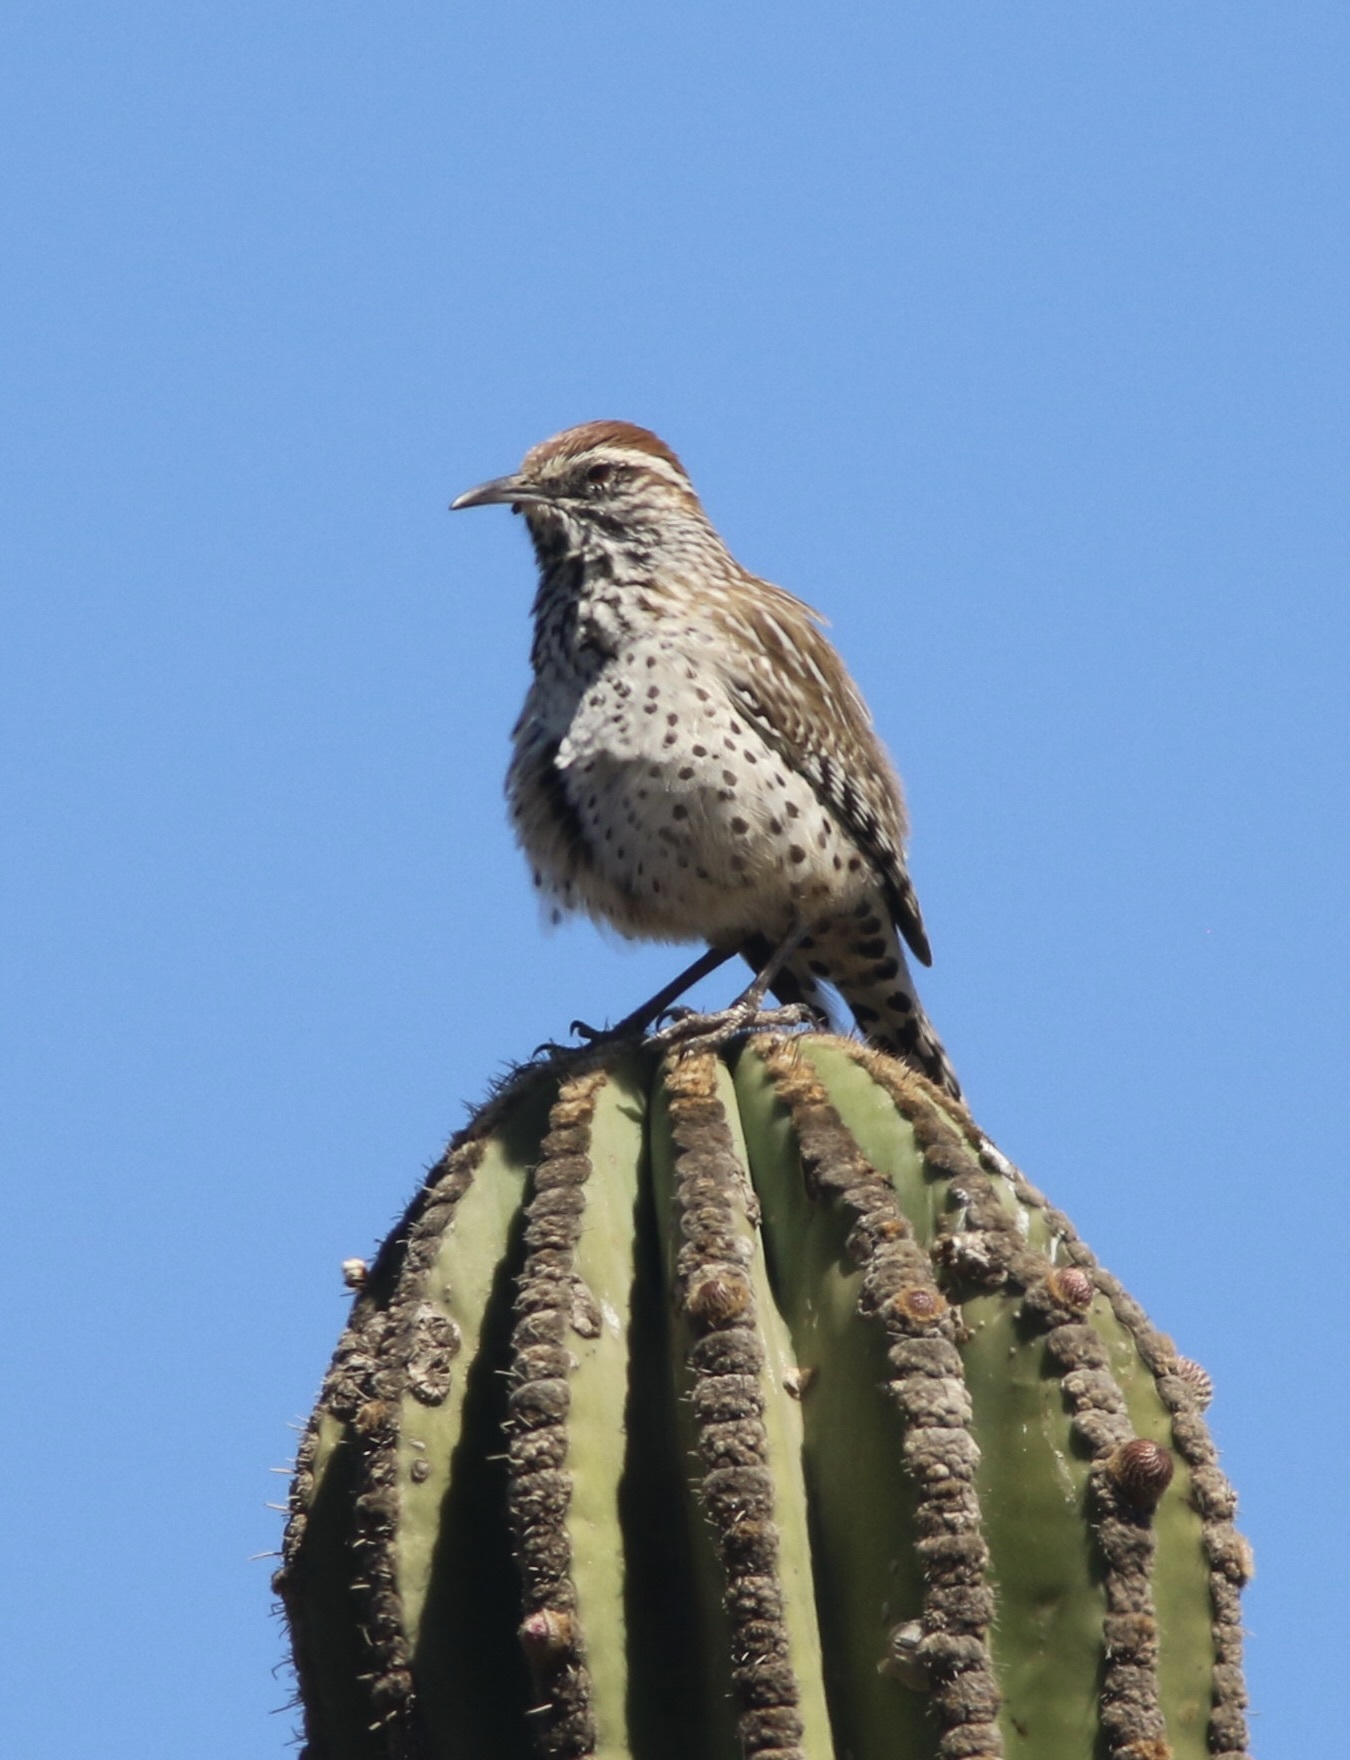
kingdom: Animalia
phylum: Chordata
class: Aves
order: Passeriformes
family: Troglodytidae
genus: Campylorhynchus
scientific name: Campylorhynchus brunneicapillus
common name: Cactus wren
